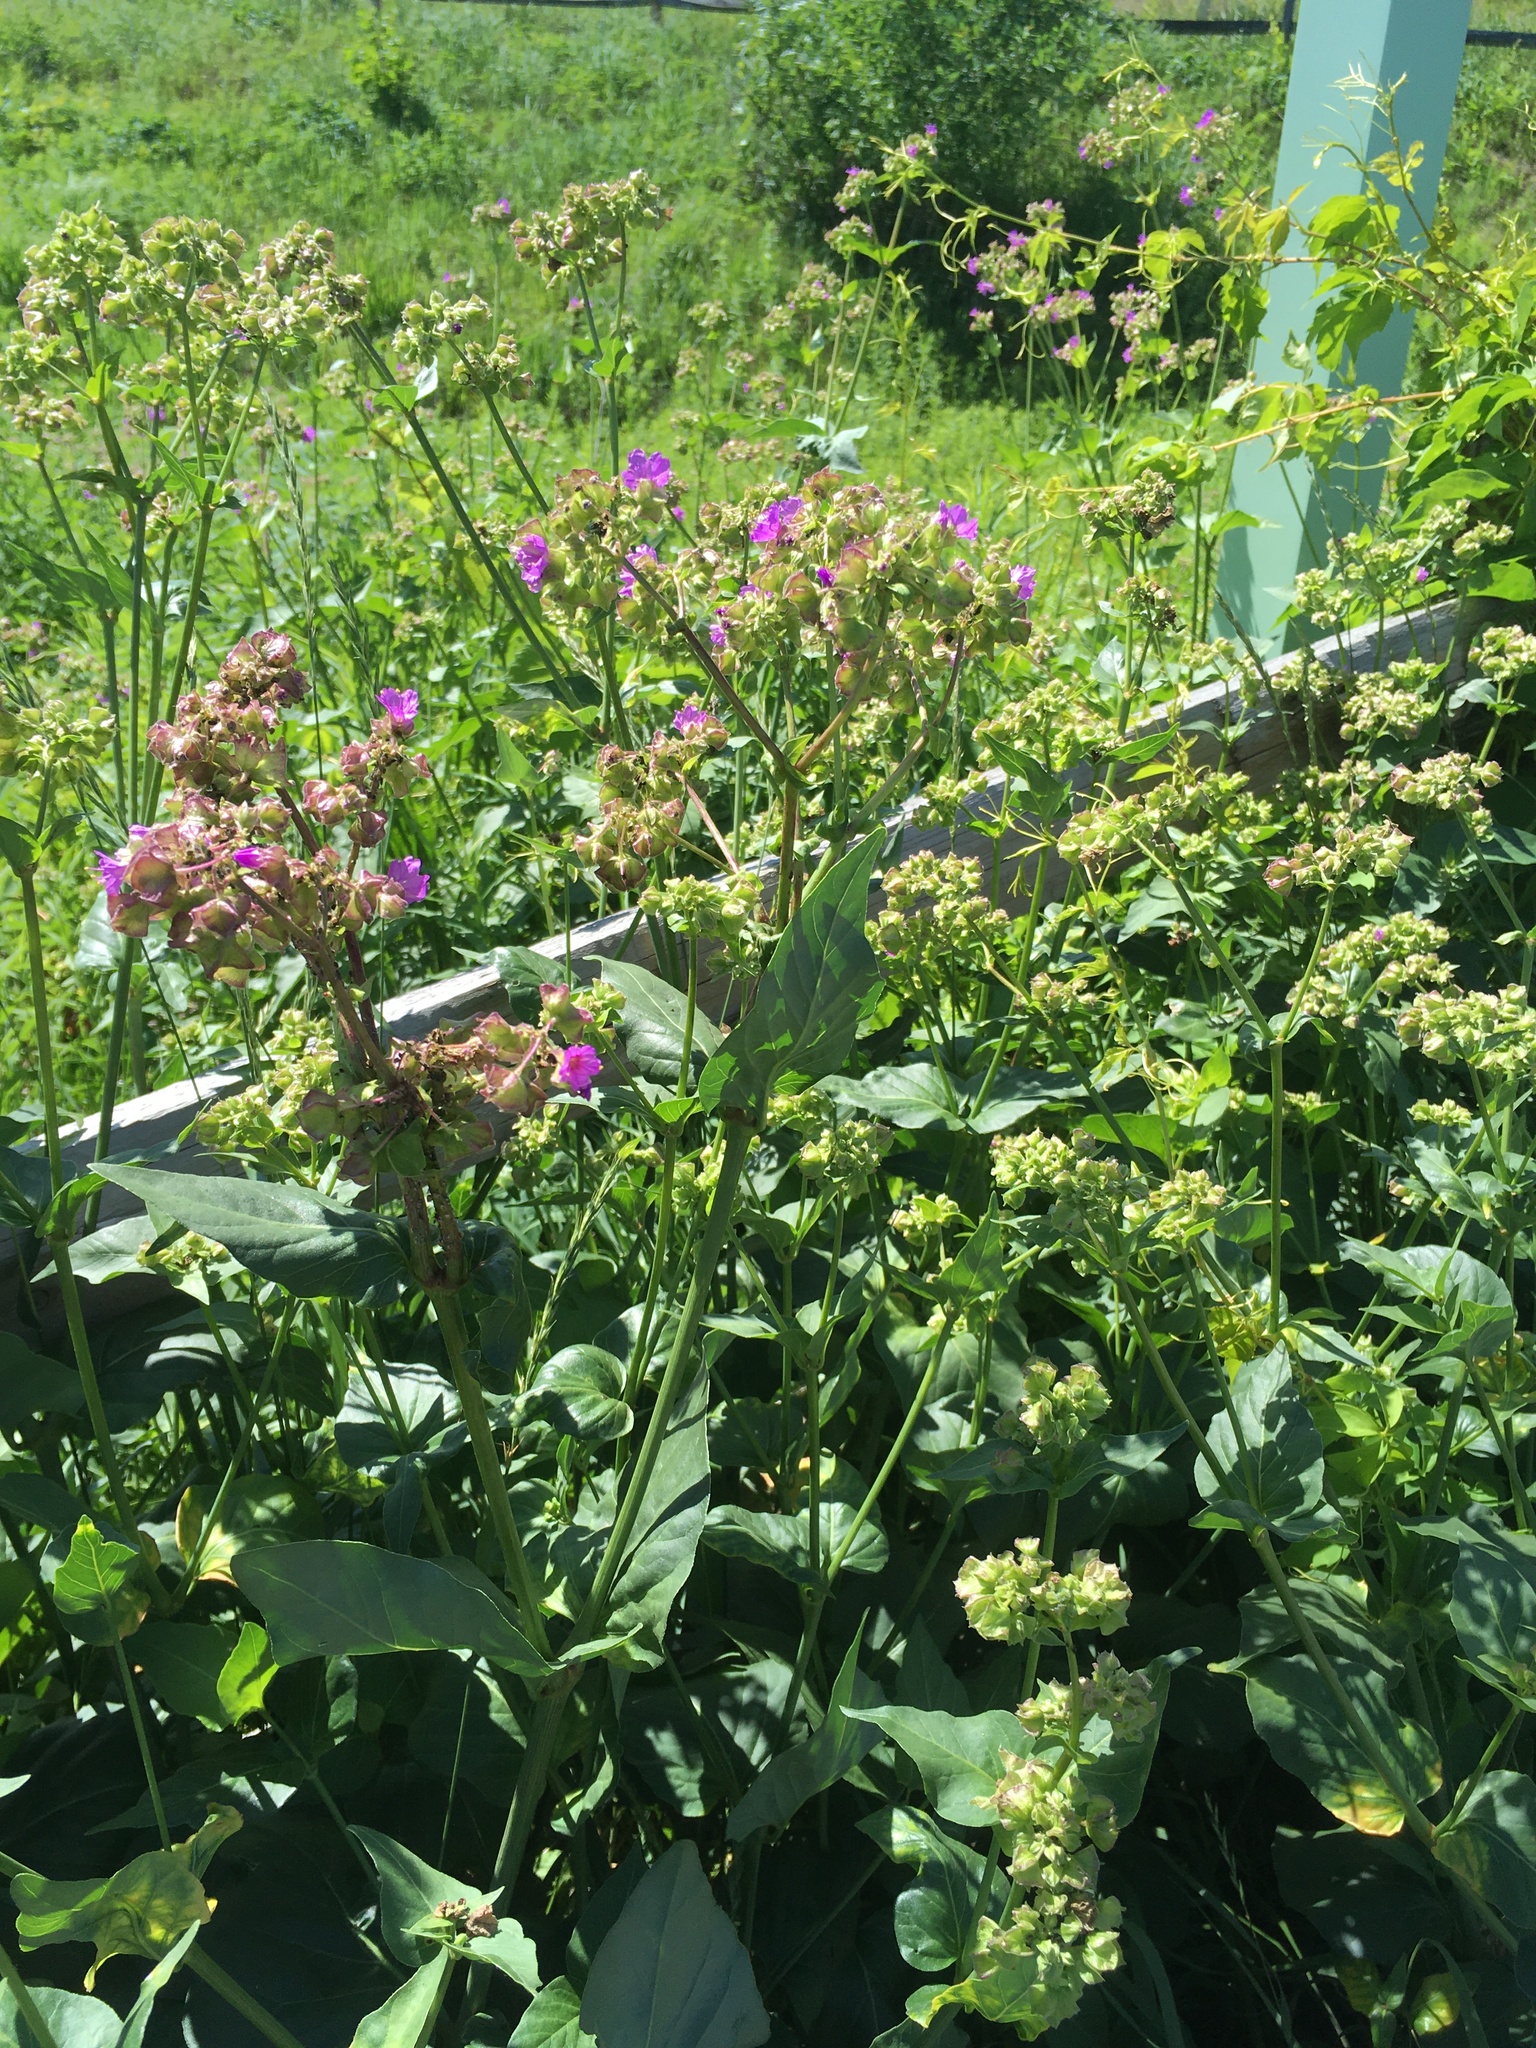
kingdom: Plantae
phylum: Tracheophyta
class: Magnoliopsida
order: Caryophyllales
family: Nyctaginaceae
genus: Mirabilis
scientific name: Mirabilis nyctaginea
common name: Umbrella wort
